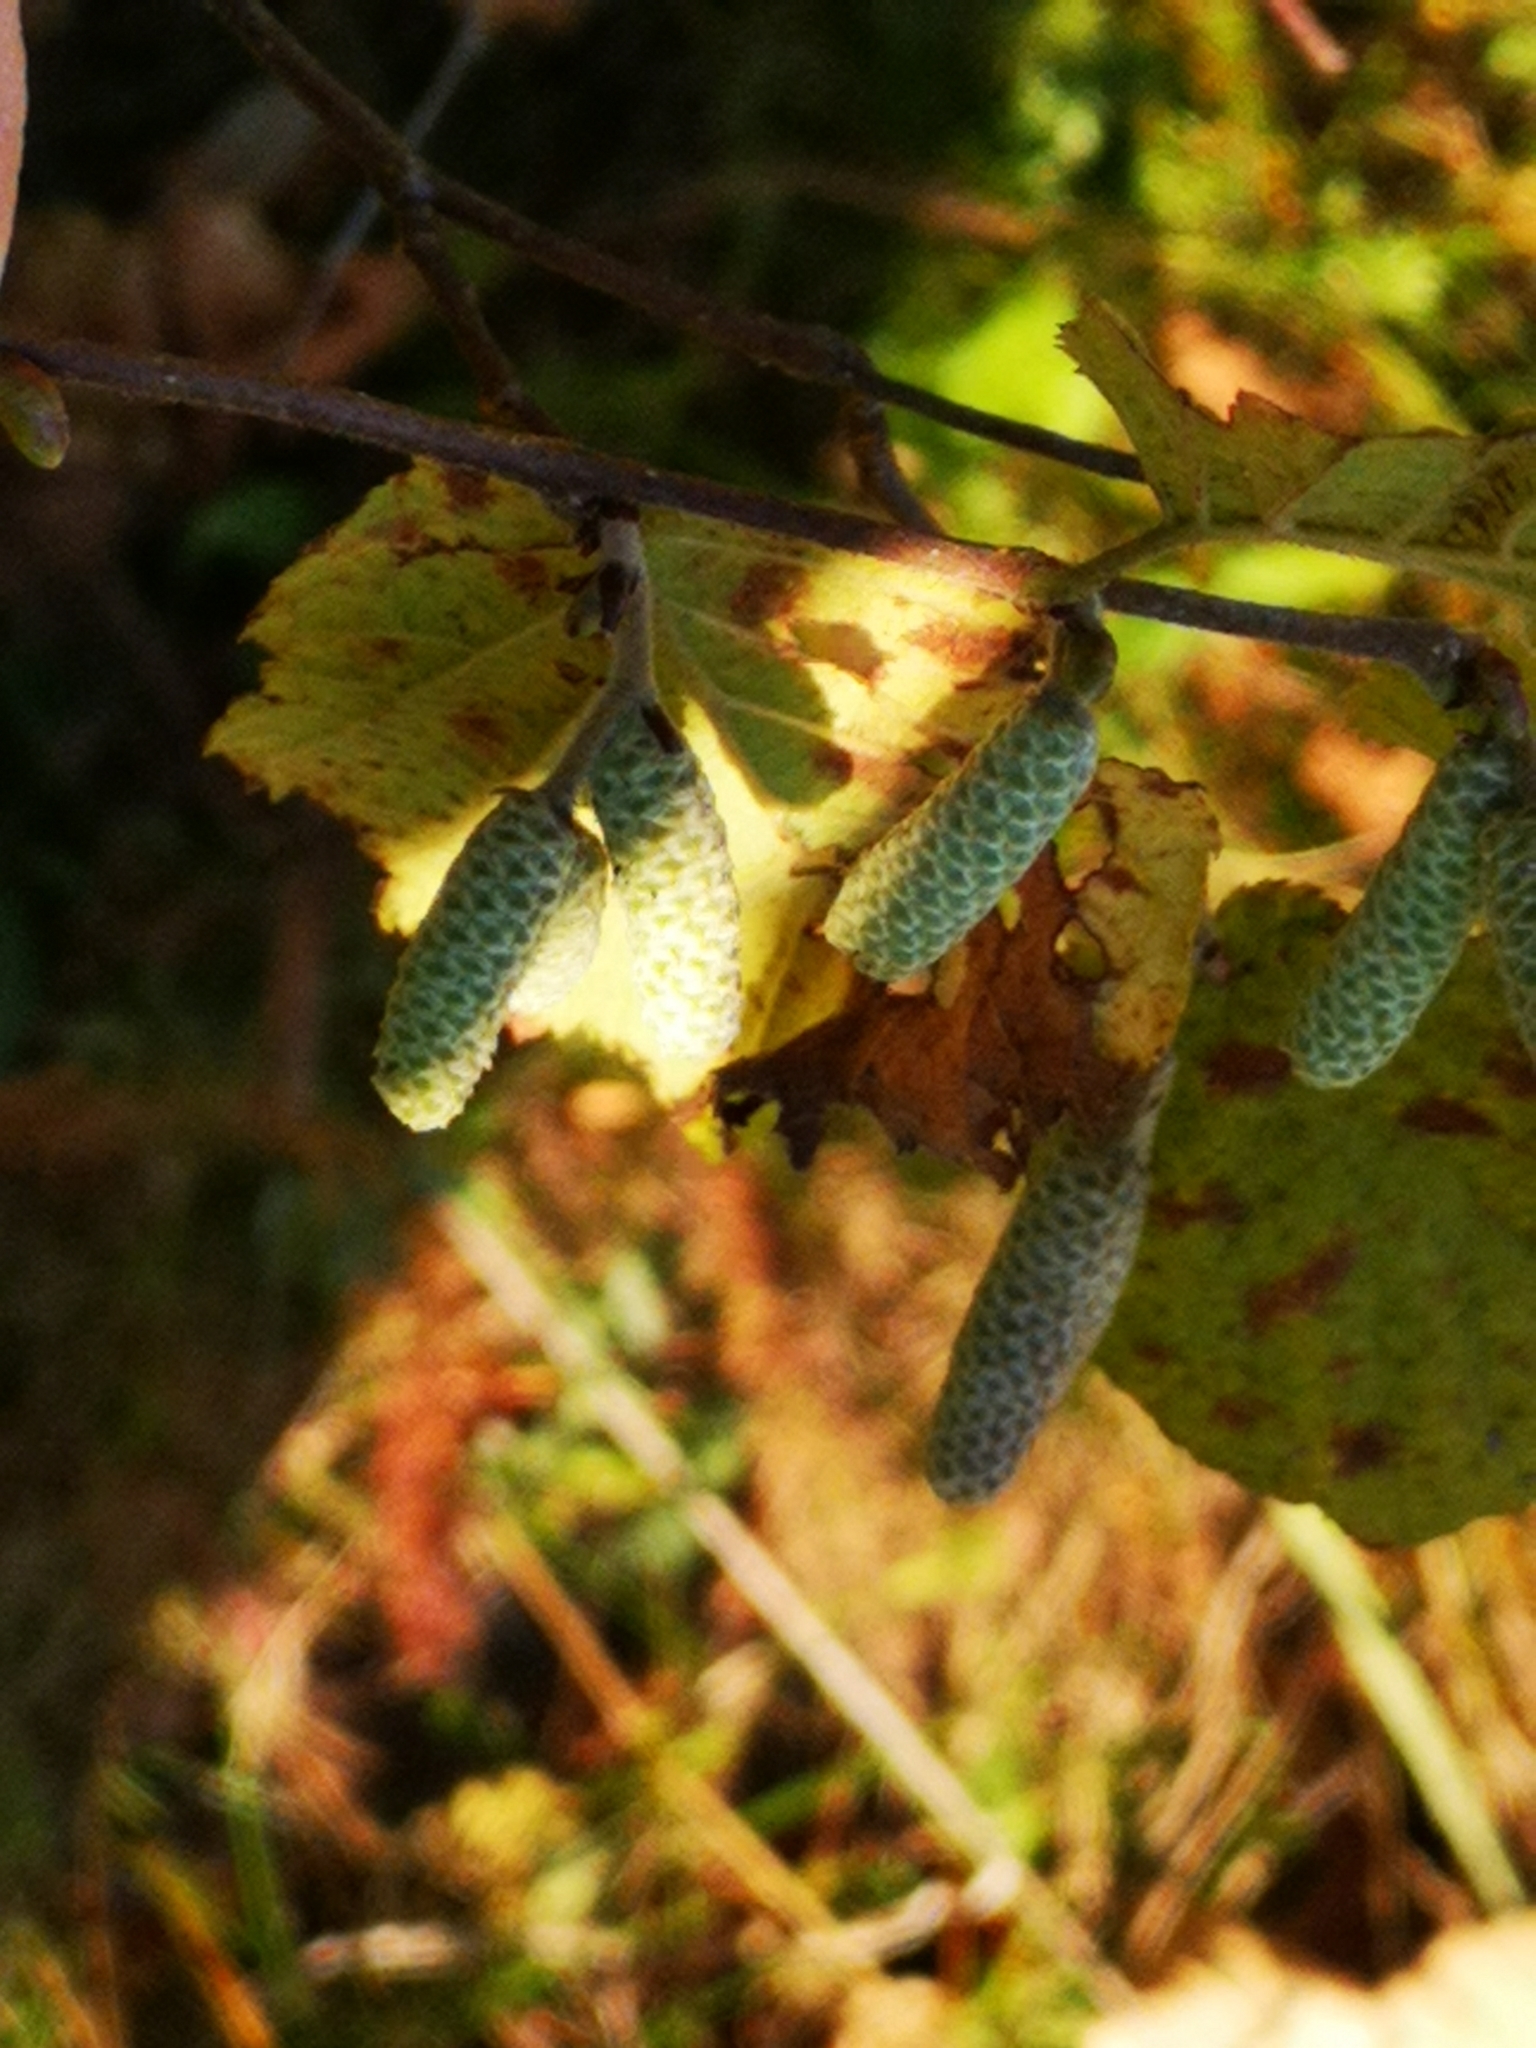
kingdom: Plantae
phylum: Tracheophyta
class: Magnoliopsida
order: Fagales
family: Betulaceae
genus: Corylus
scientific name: Corylus avellana
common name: European hazel
